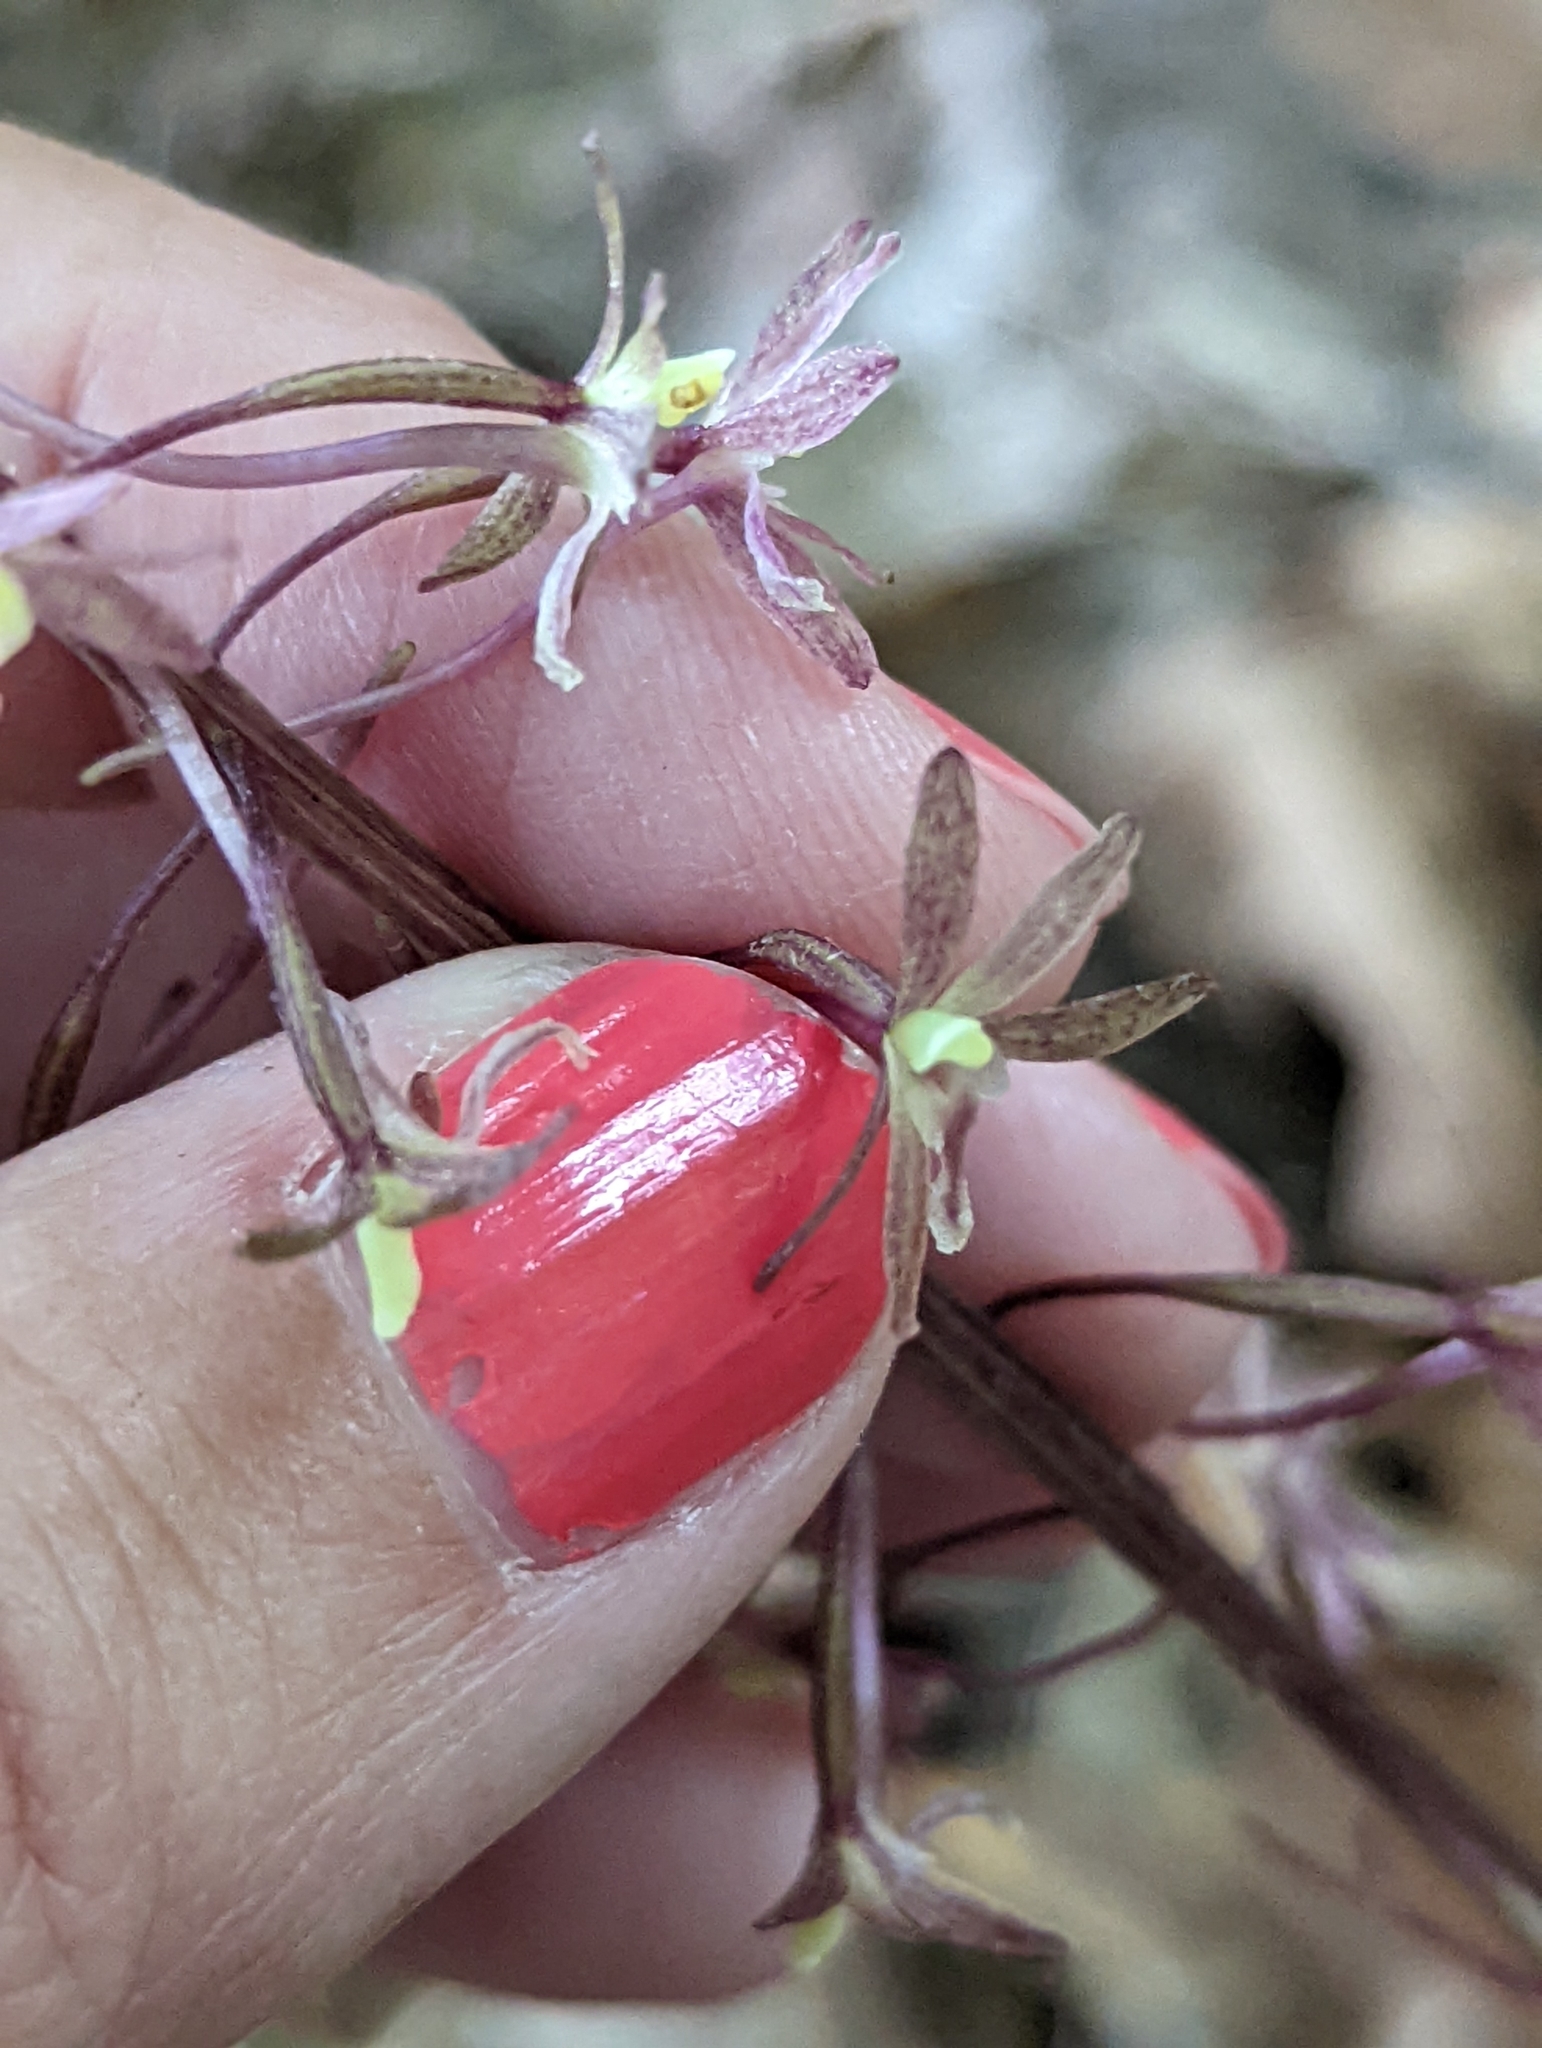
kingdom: Plantae
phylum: Tracheophyta
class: Liliopsida
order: Asparagales
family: Orchidaceae
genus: Tipularia
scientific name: Tipularia discolor
